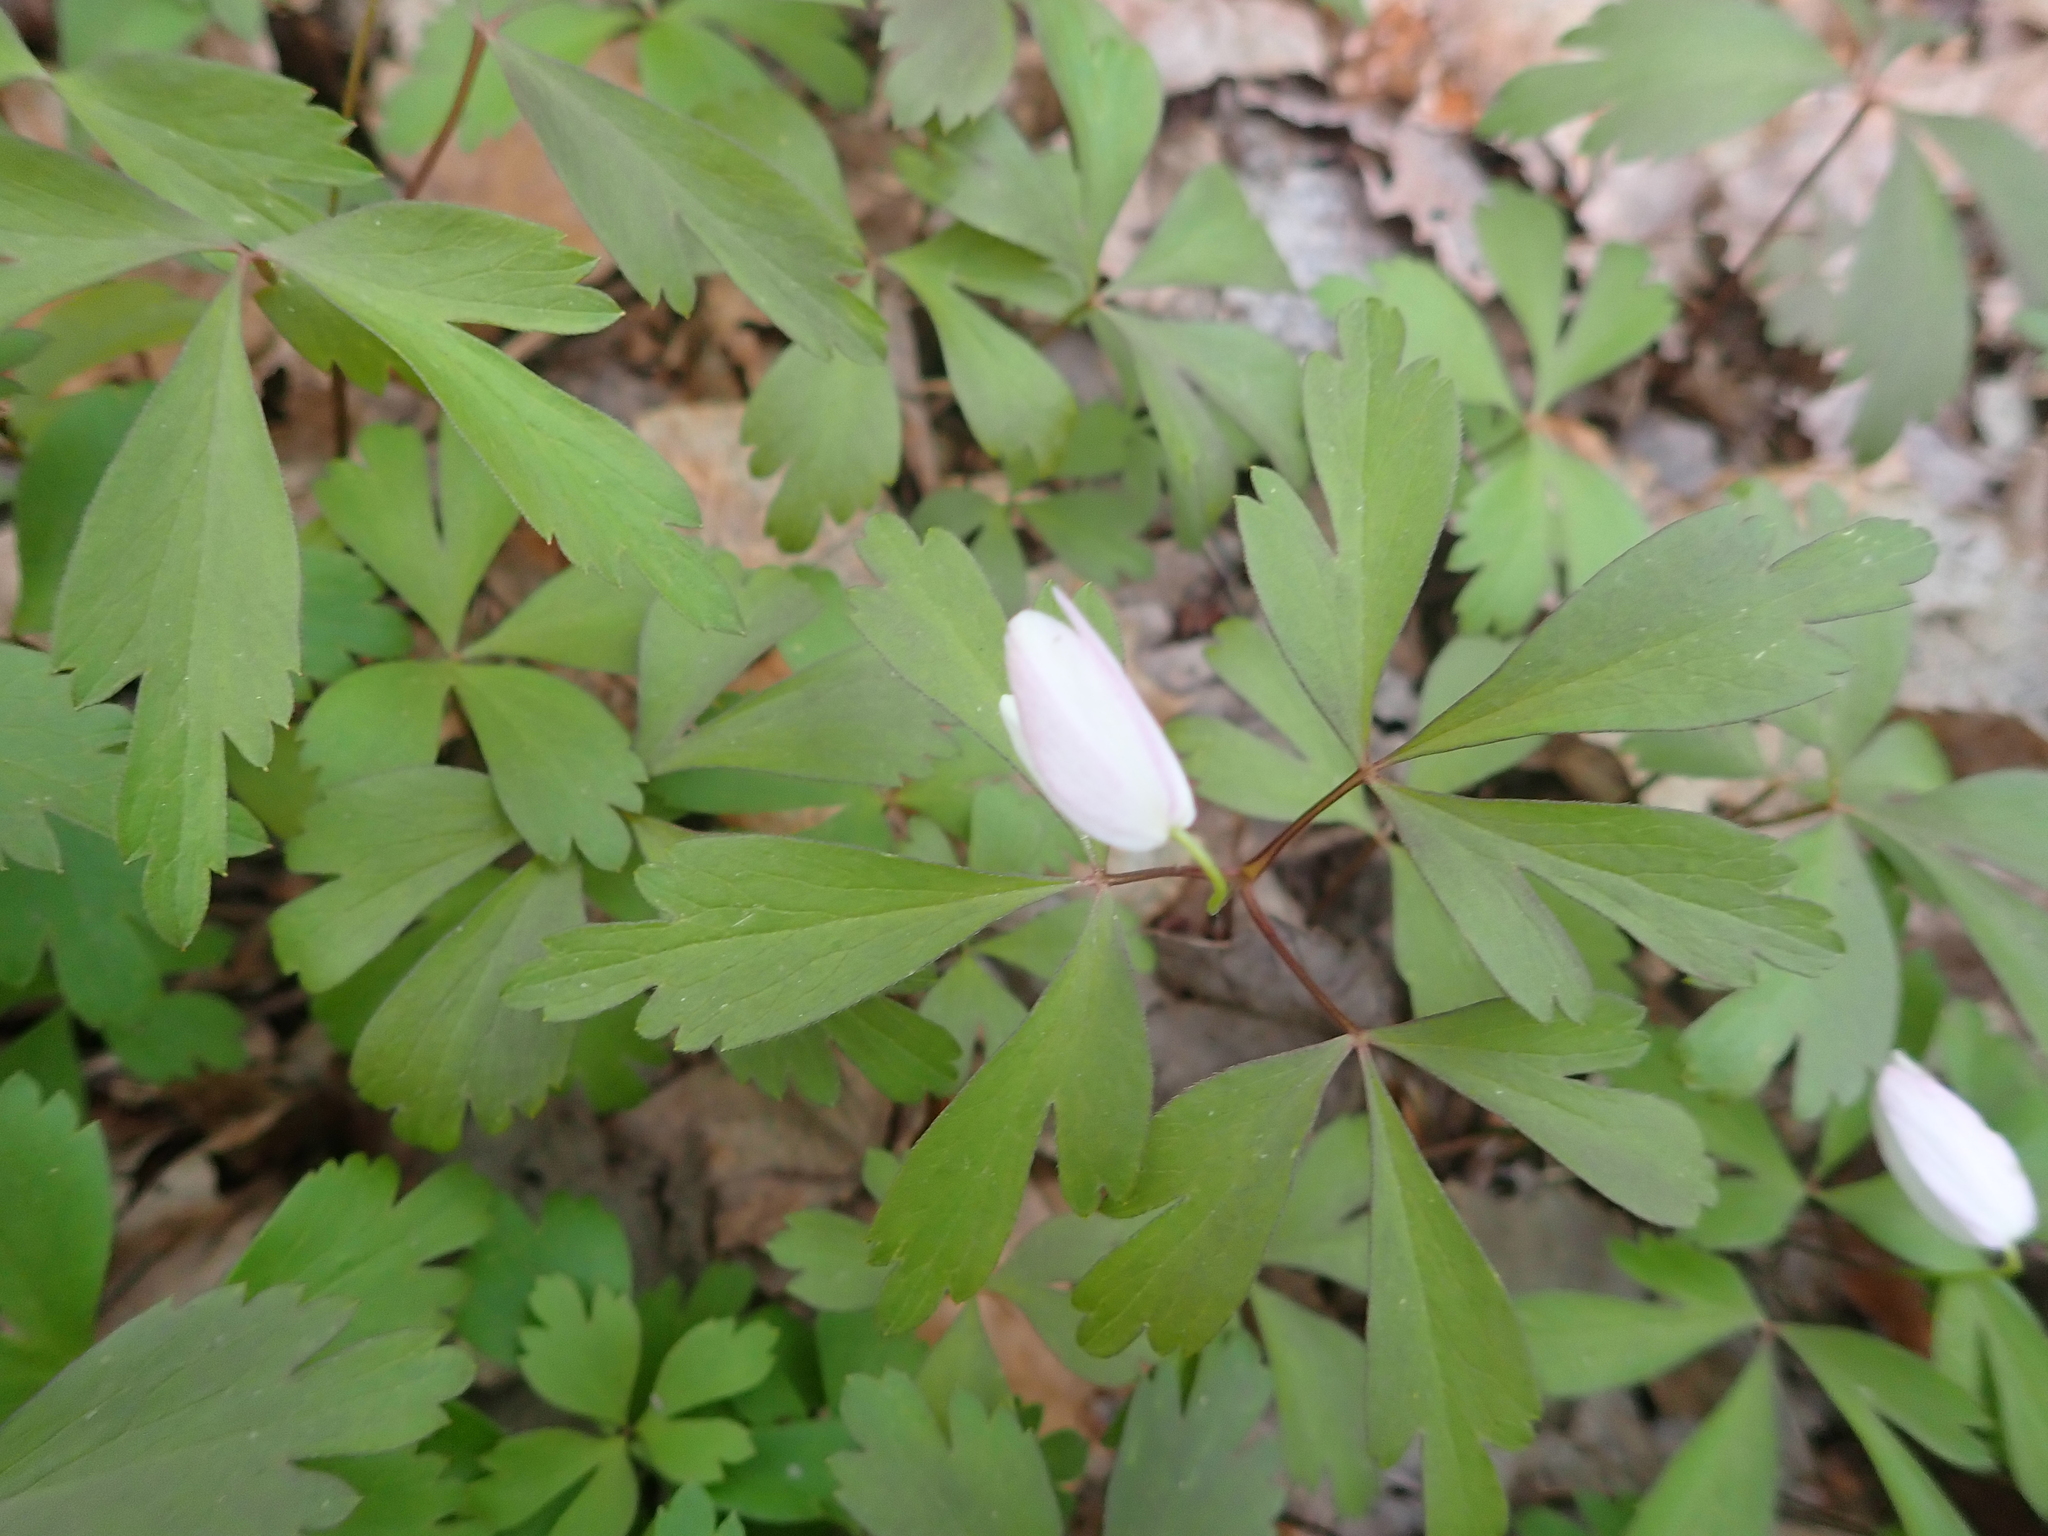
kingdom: Plantae
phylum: Tracheophyta
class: Magnoliopsida
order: Ranunculales
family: Ranunculaceae
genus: Anemone
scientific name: Anemone quinquefolia
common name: Wood anemone
